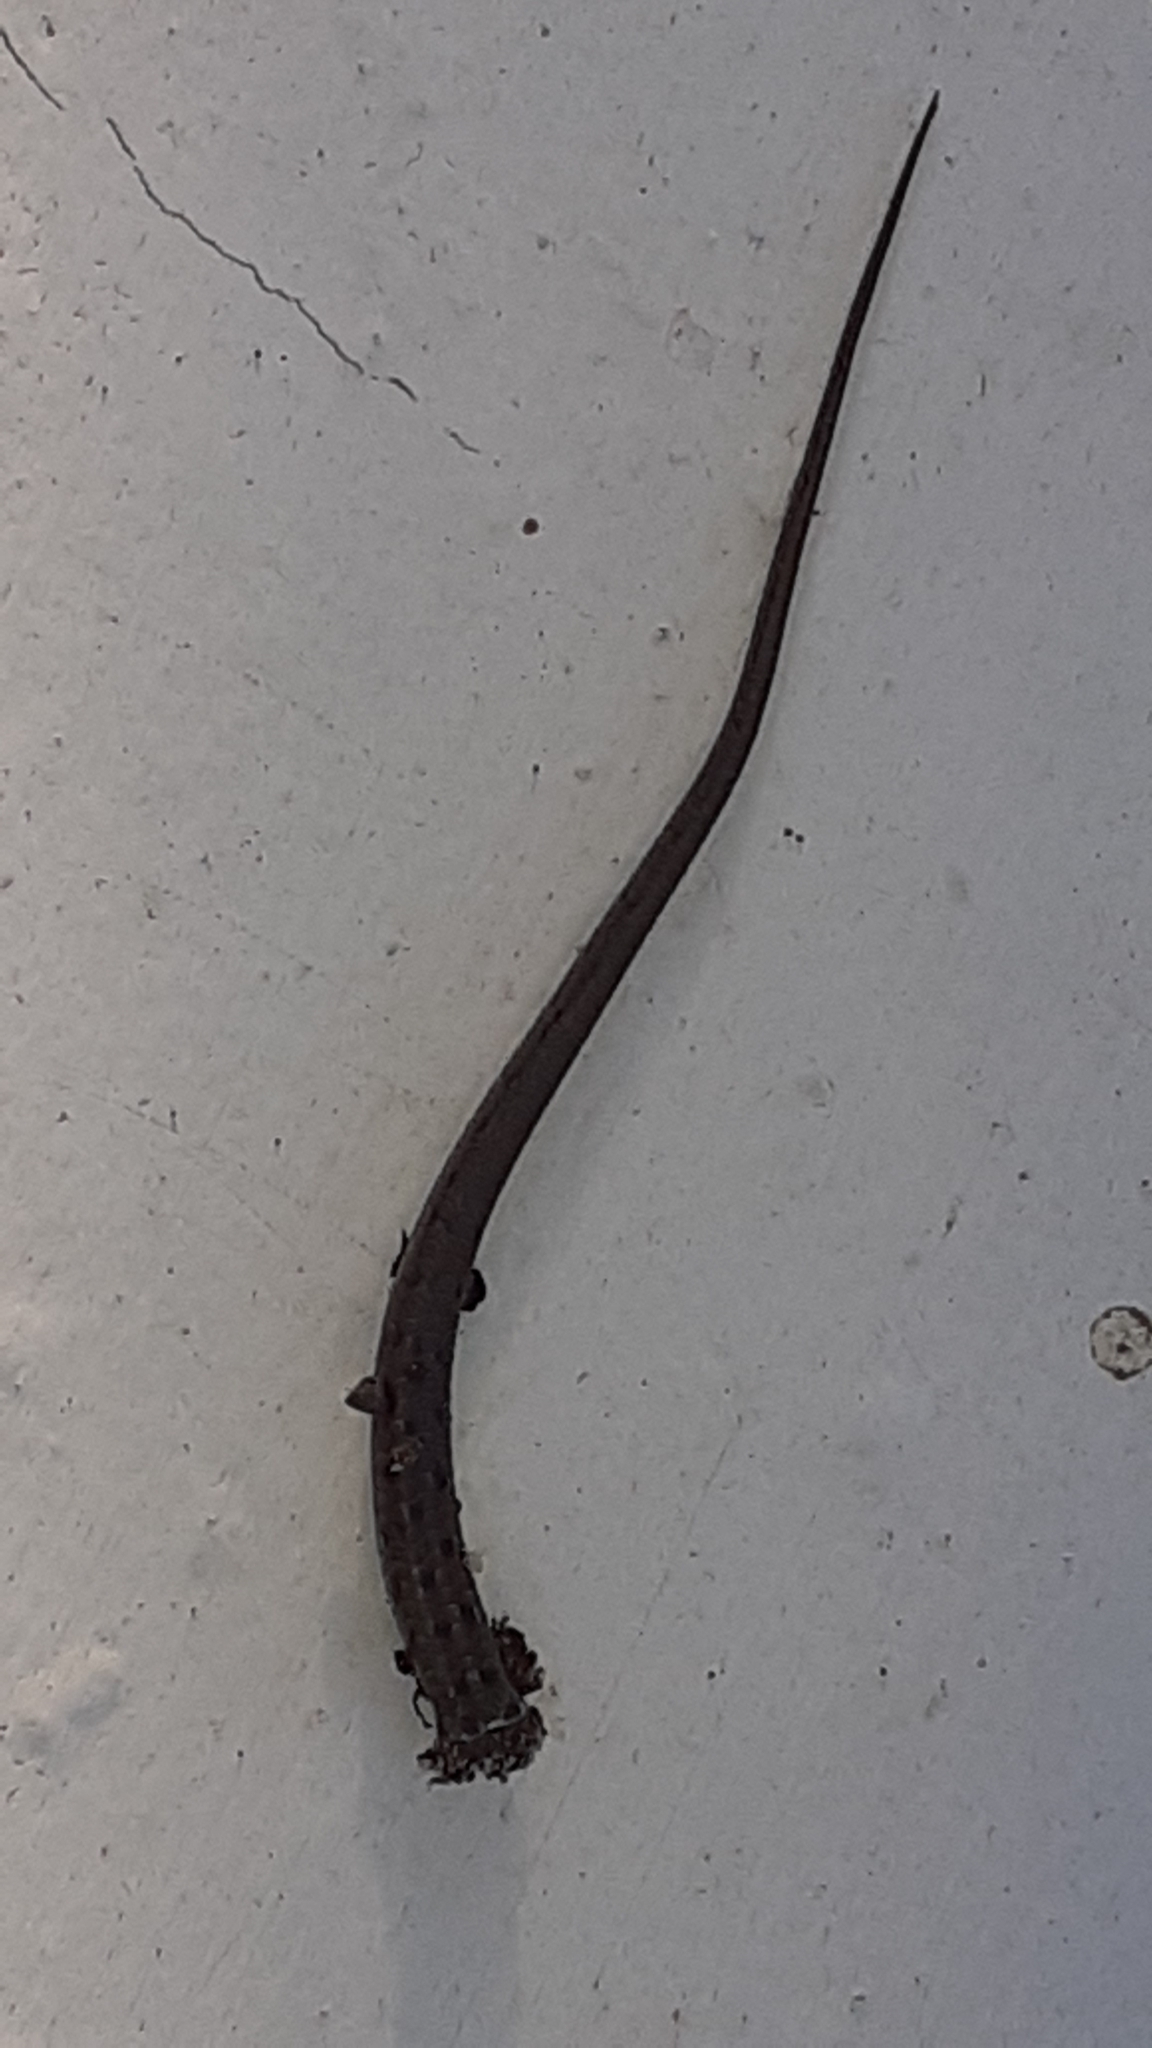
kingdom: Animalia
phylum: Chordata
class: Squamata
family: Scincidae
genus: Trachylepis
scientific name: Trachylepis capensis
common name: Cape skink
